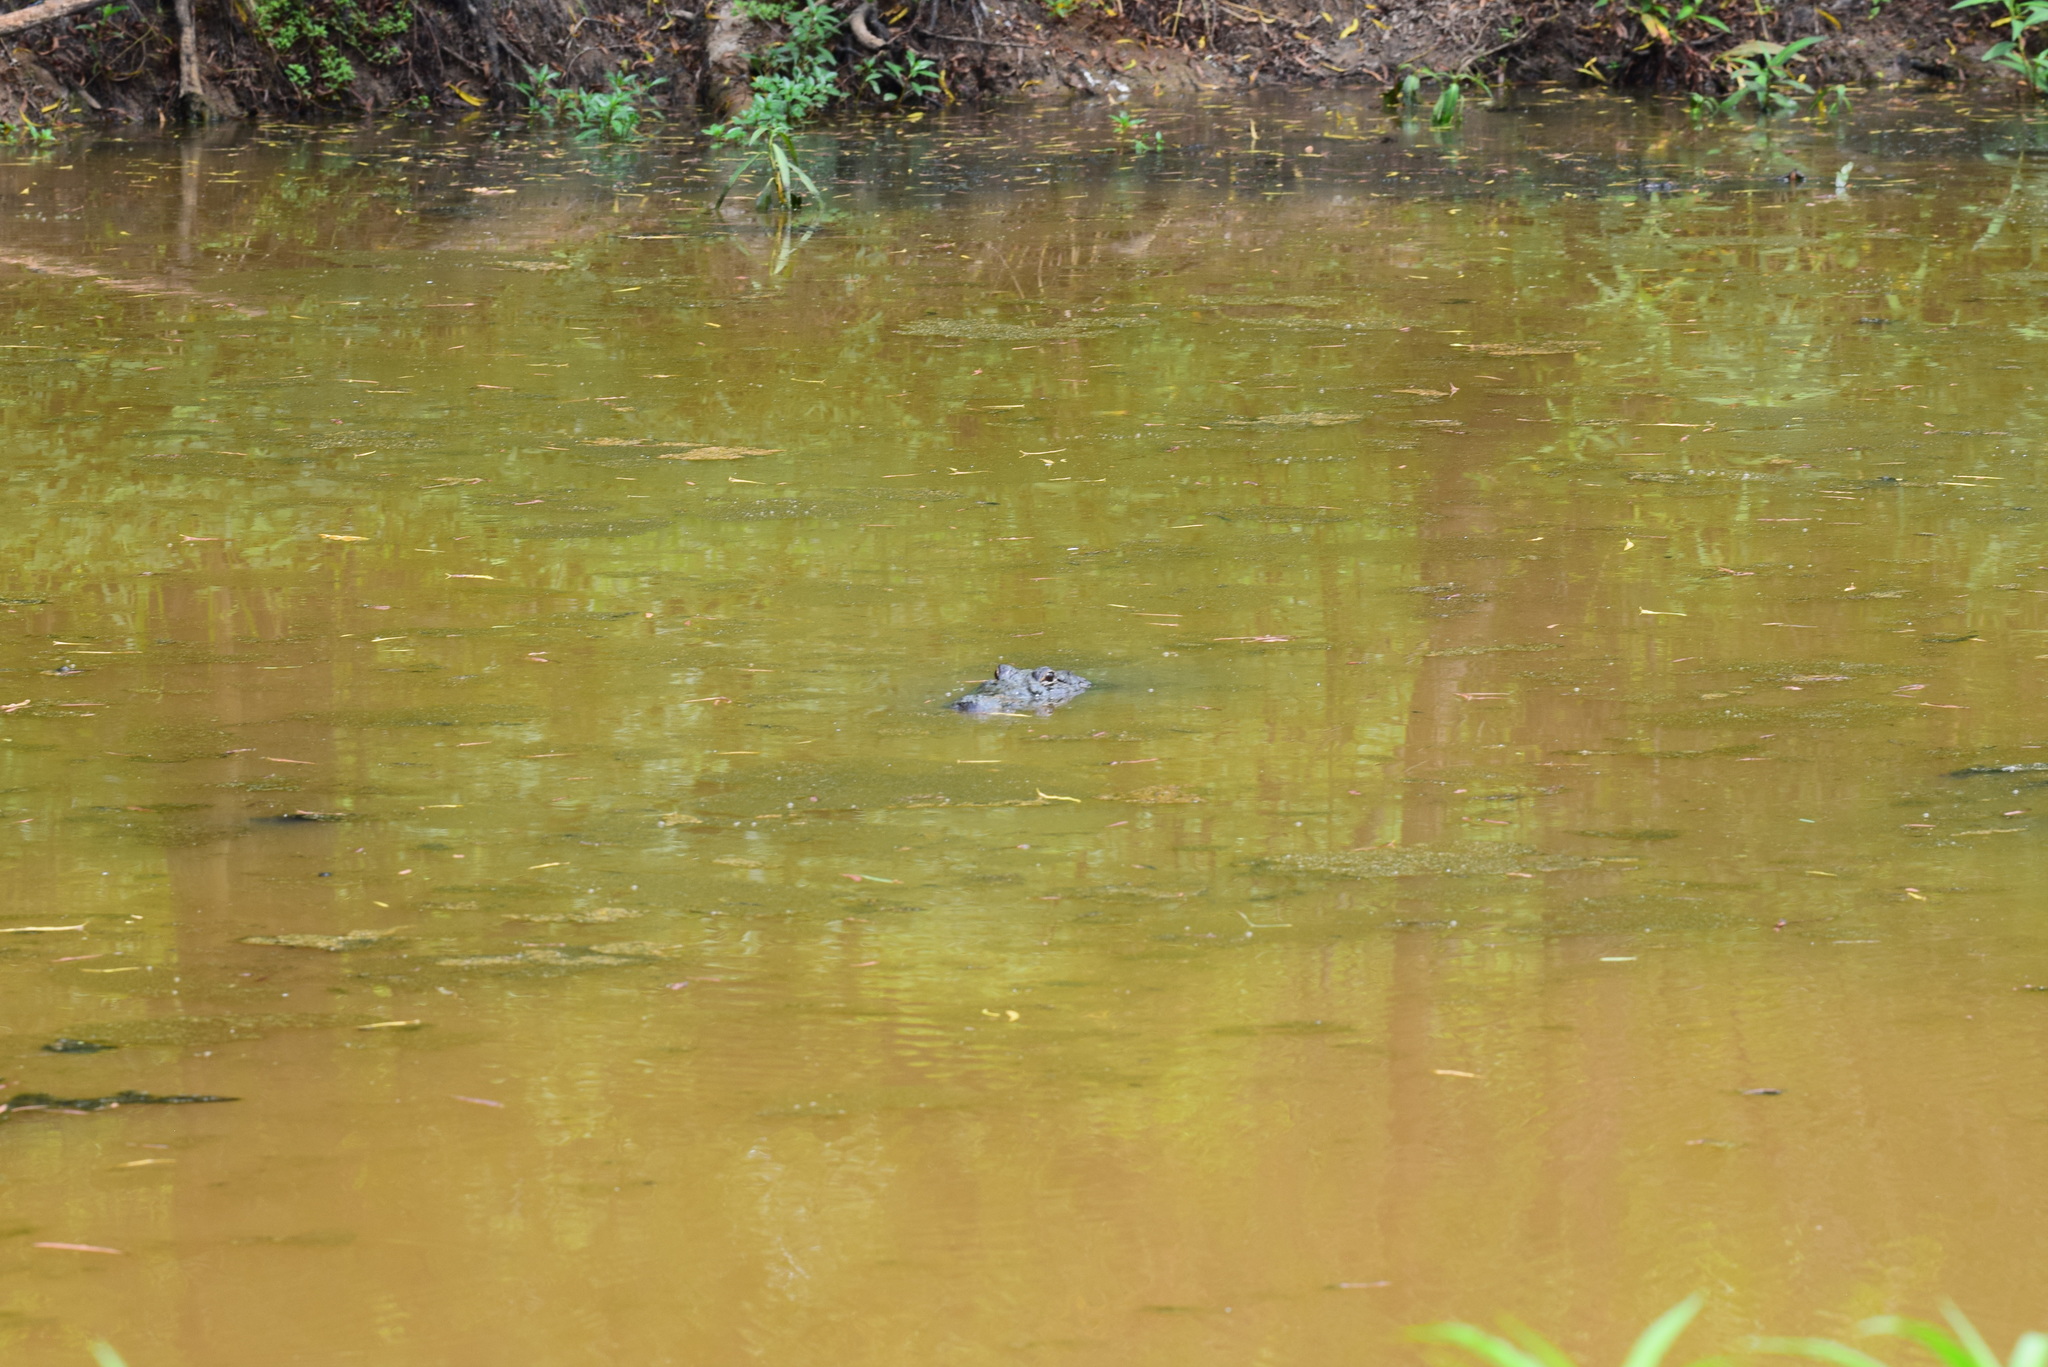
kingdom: Animalia
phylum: Chordata
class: Crocodylia
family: Alligatoridae
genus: Alligator
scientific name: Alligator mississippiensis
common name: American alligator
